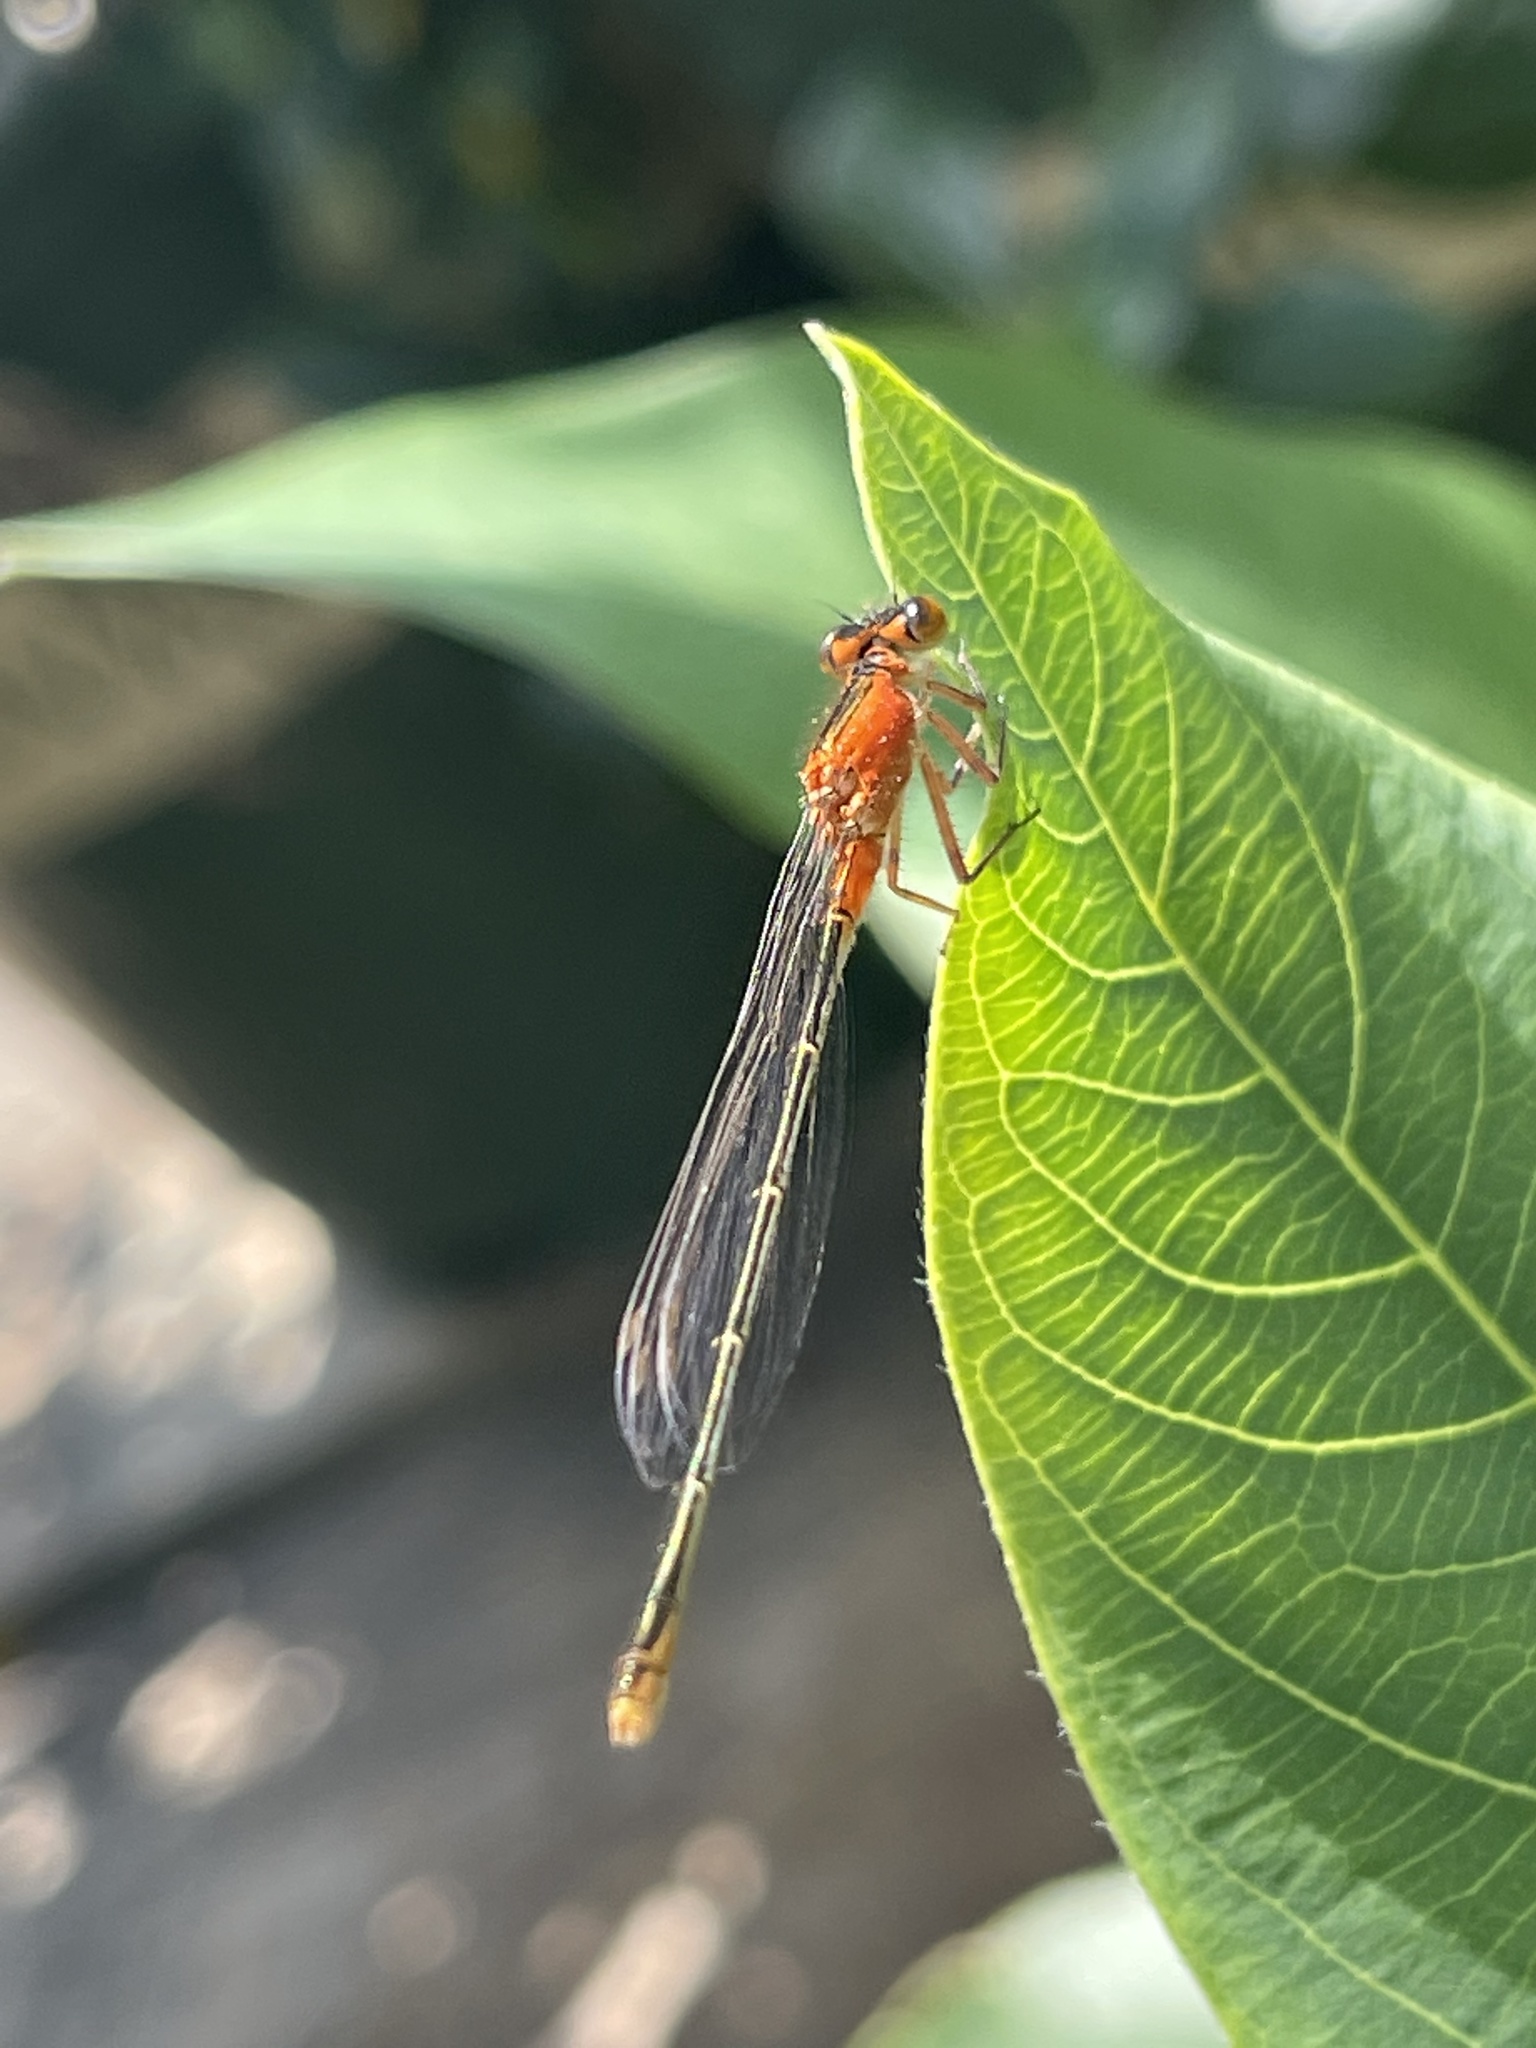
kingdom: Animalia
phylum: Arthropoda
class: Insecta
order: Odonata
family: Coenagrionidae
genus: Ischnura
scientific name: Ischnura ramburii
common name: Rambur's forktail
